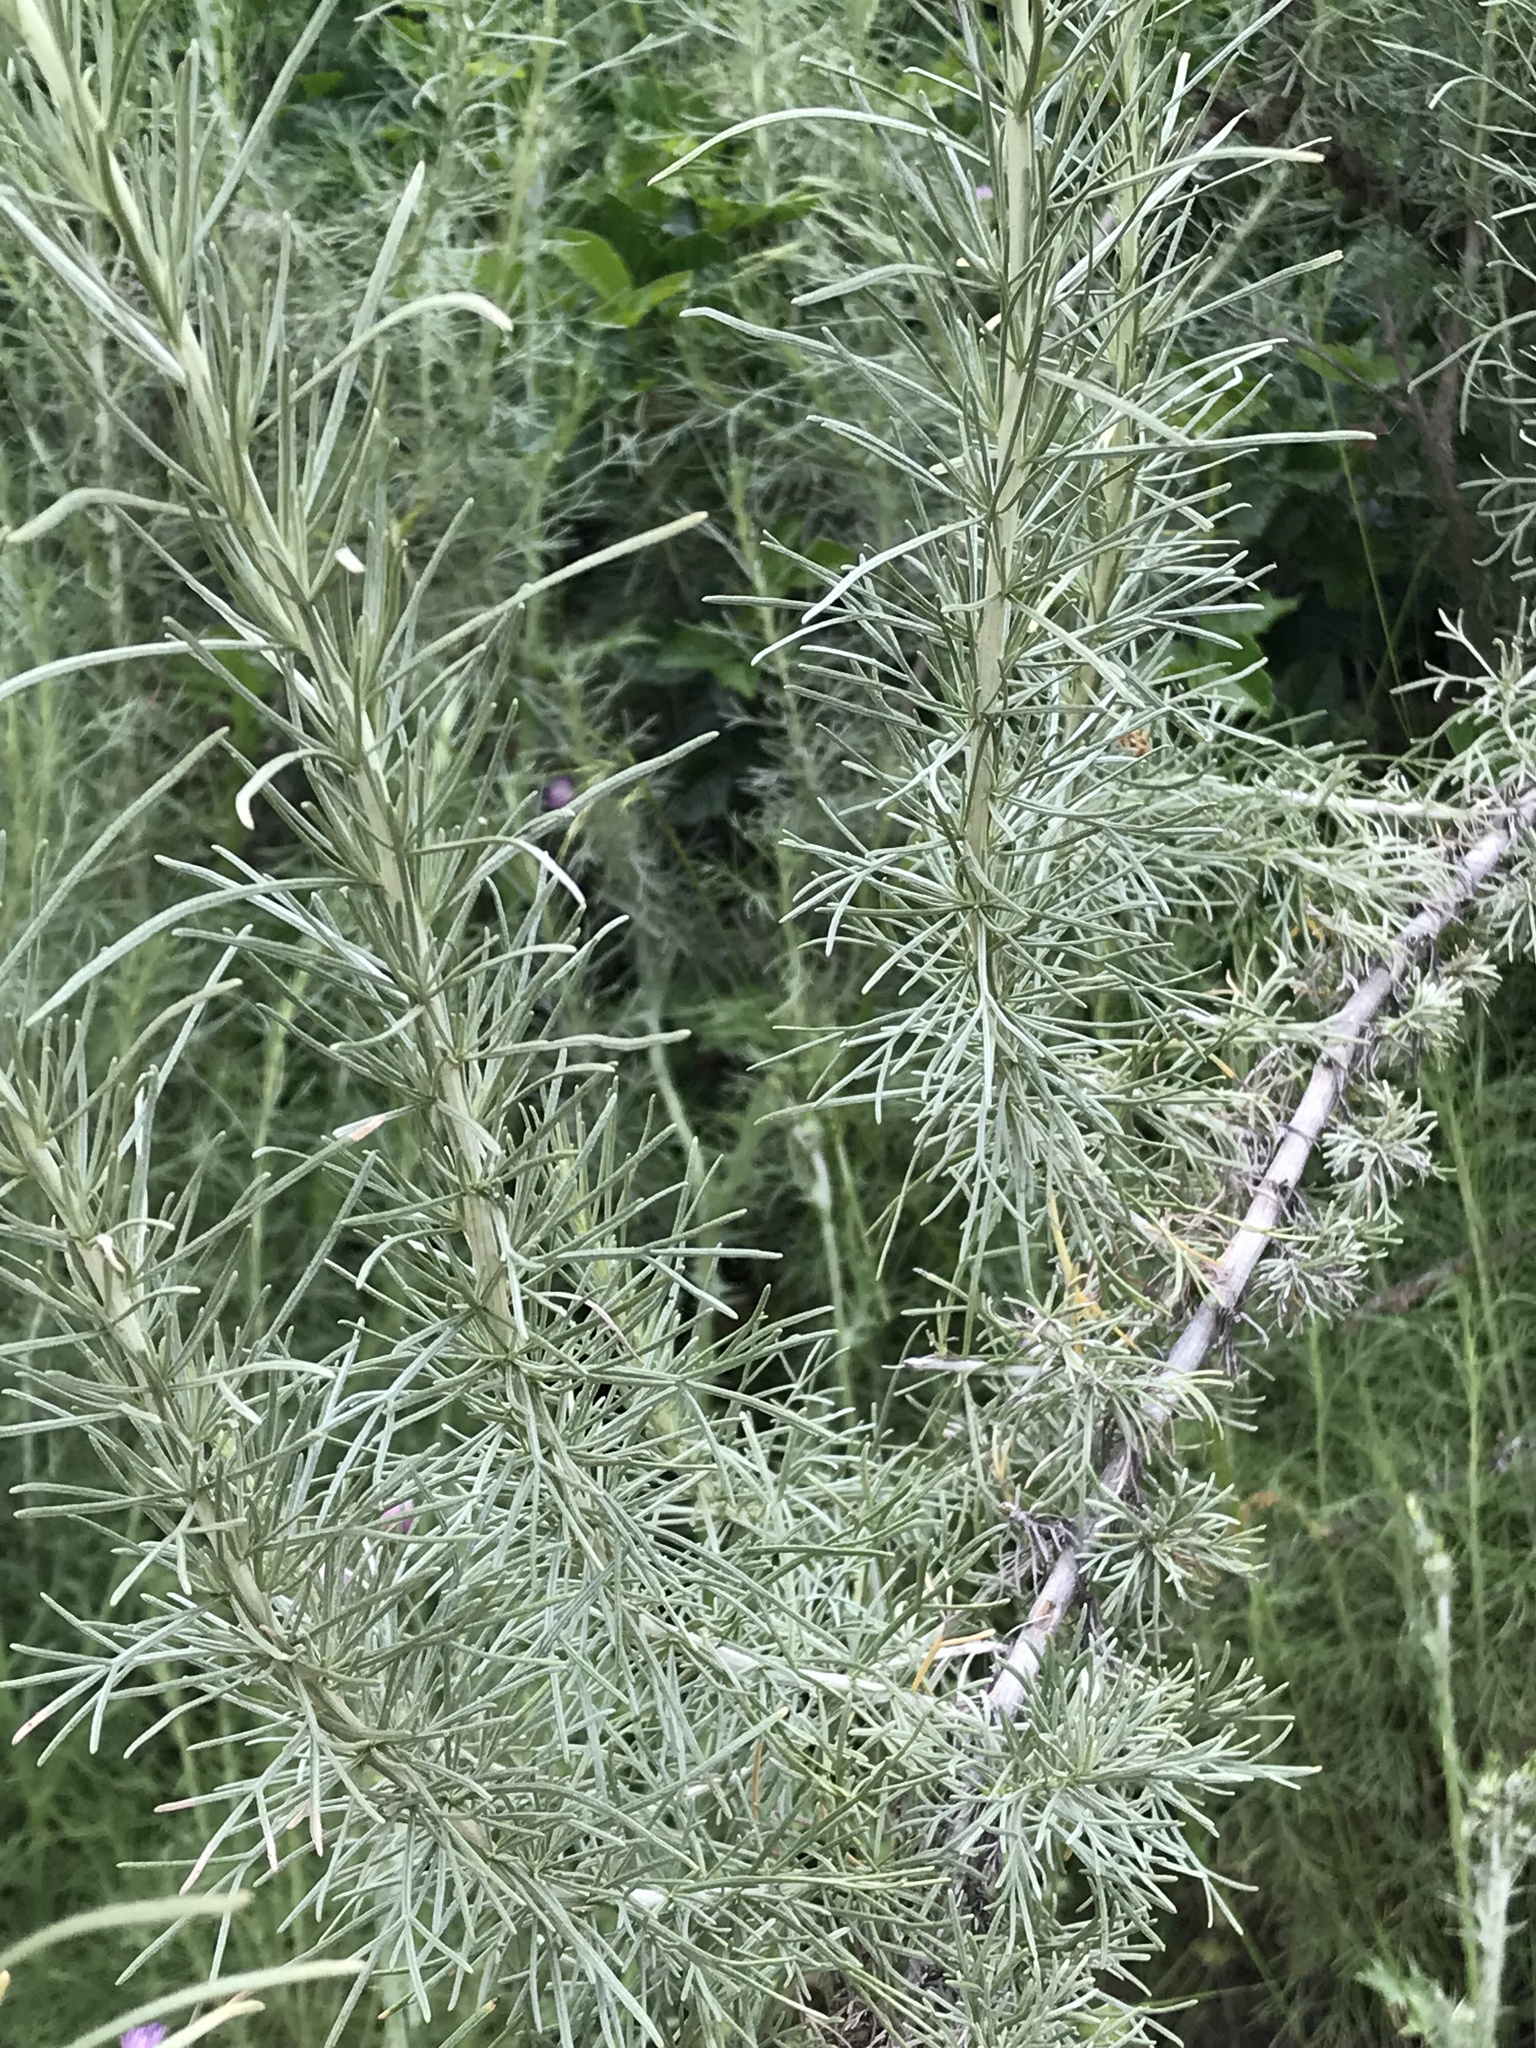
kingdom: Plantae
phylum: Tracheophyta
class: Magnoliopsida
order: Asterales
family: Asteraceae
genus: Artemisia
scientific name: Artemisia californica
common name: California sagebrush
